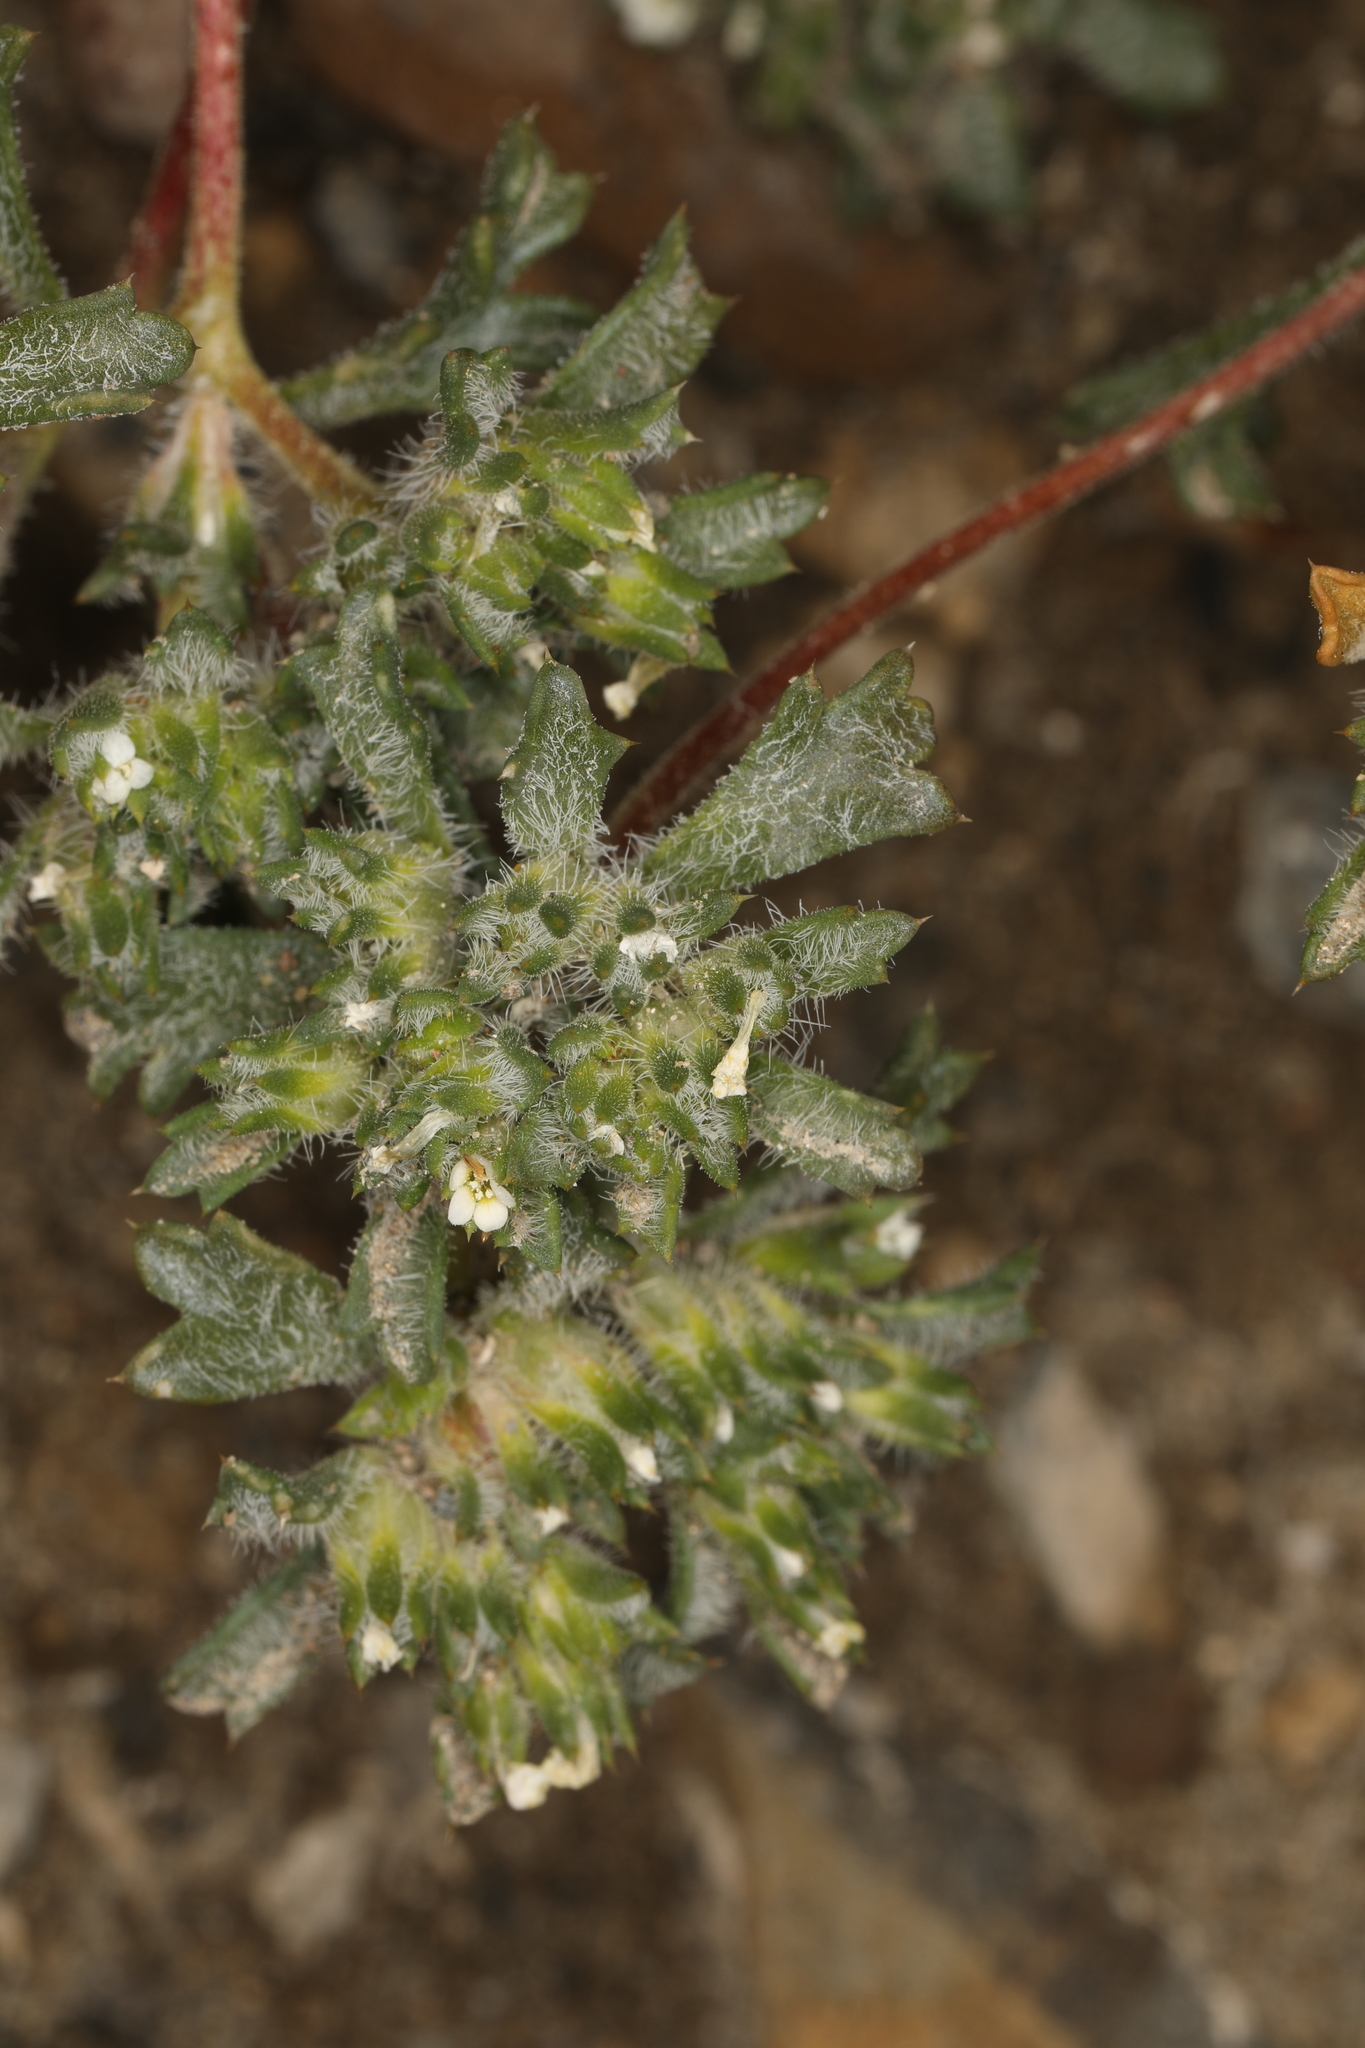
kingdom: Plantae
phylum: Tracheophyta
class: Magnoliopsida
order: Ericales
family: Polemoniaceae
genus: Ipomopsis
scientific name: Ipomopsis polycladon
